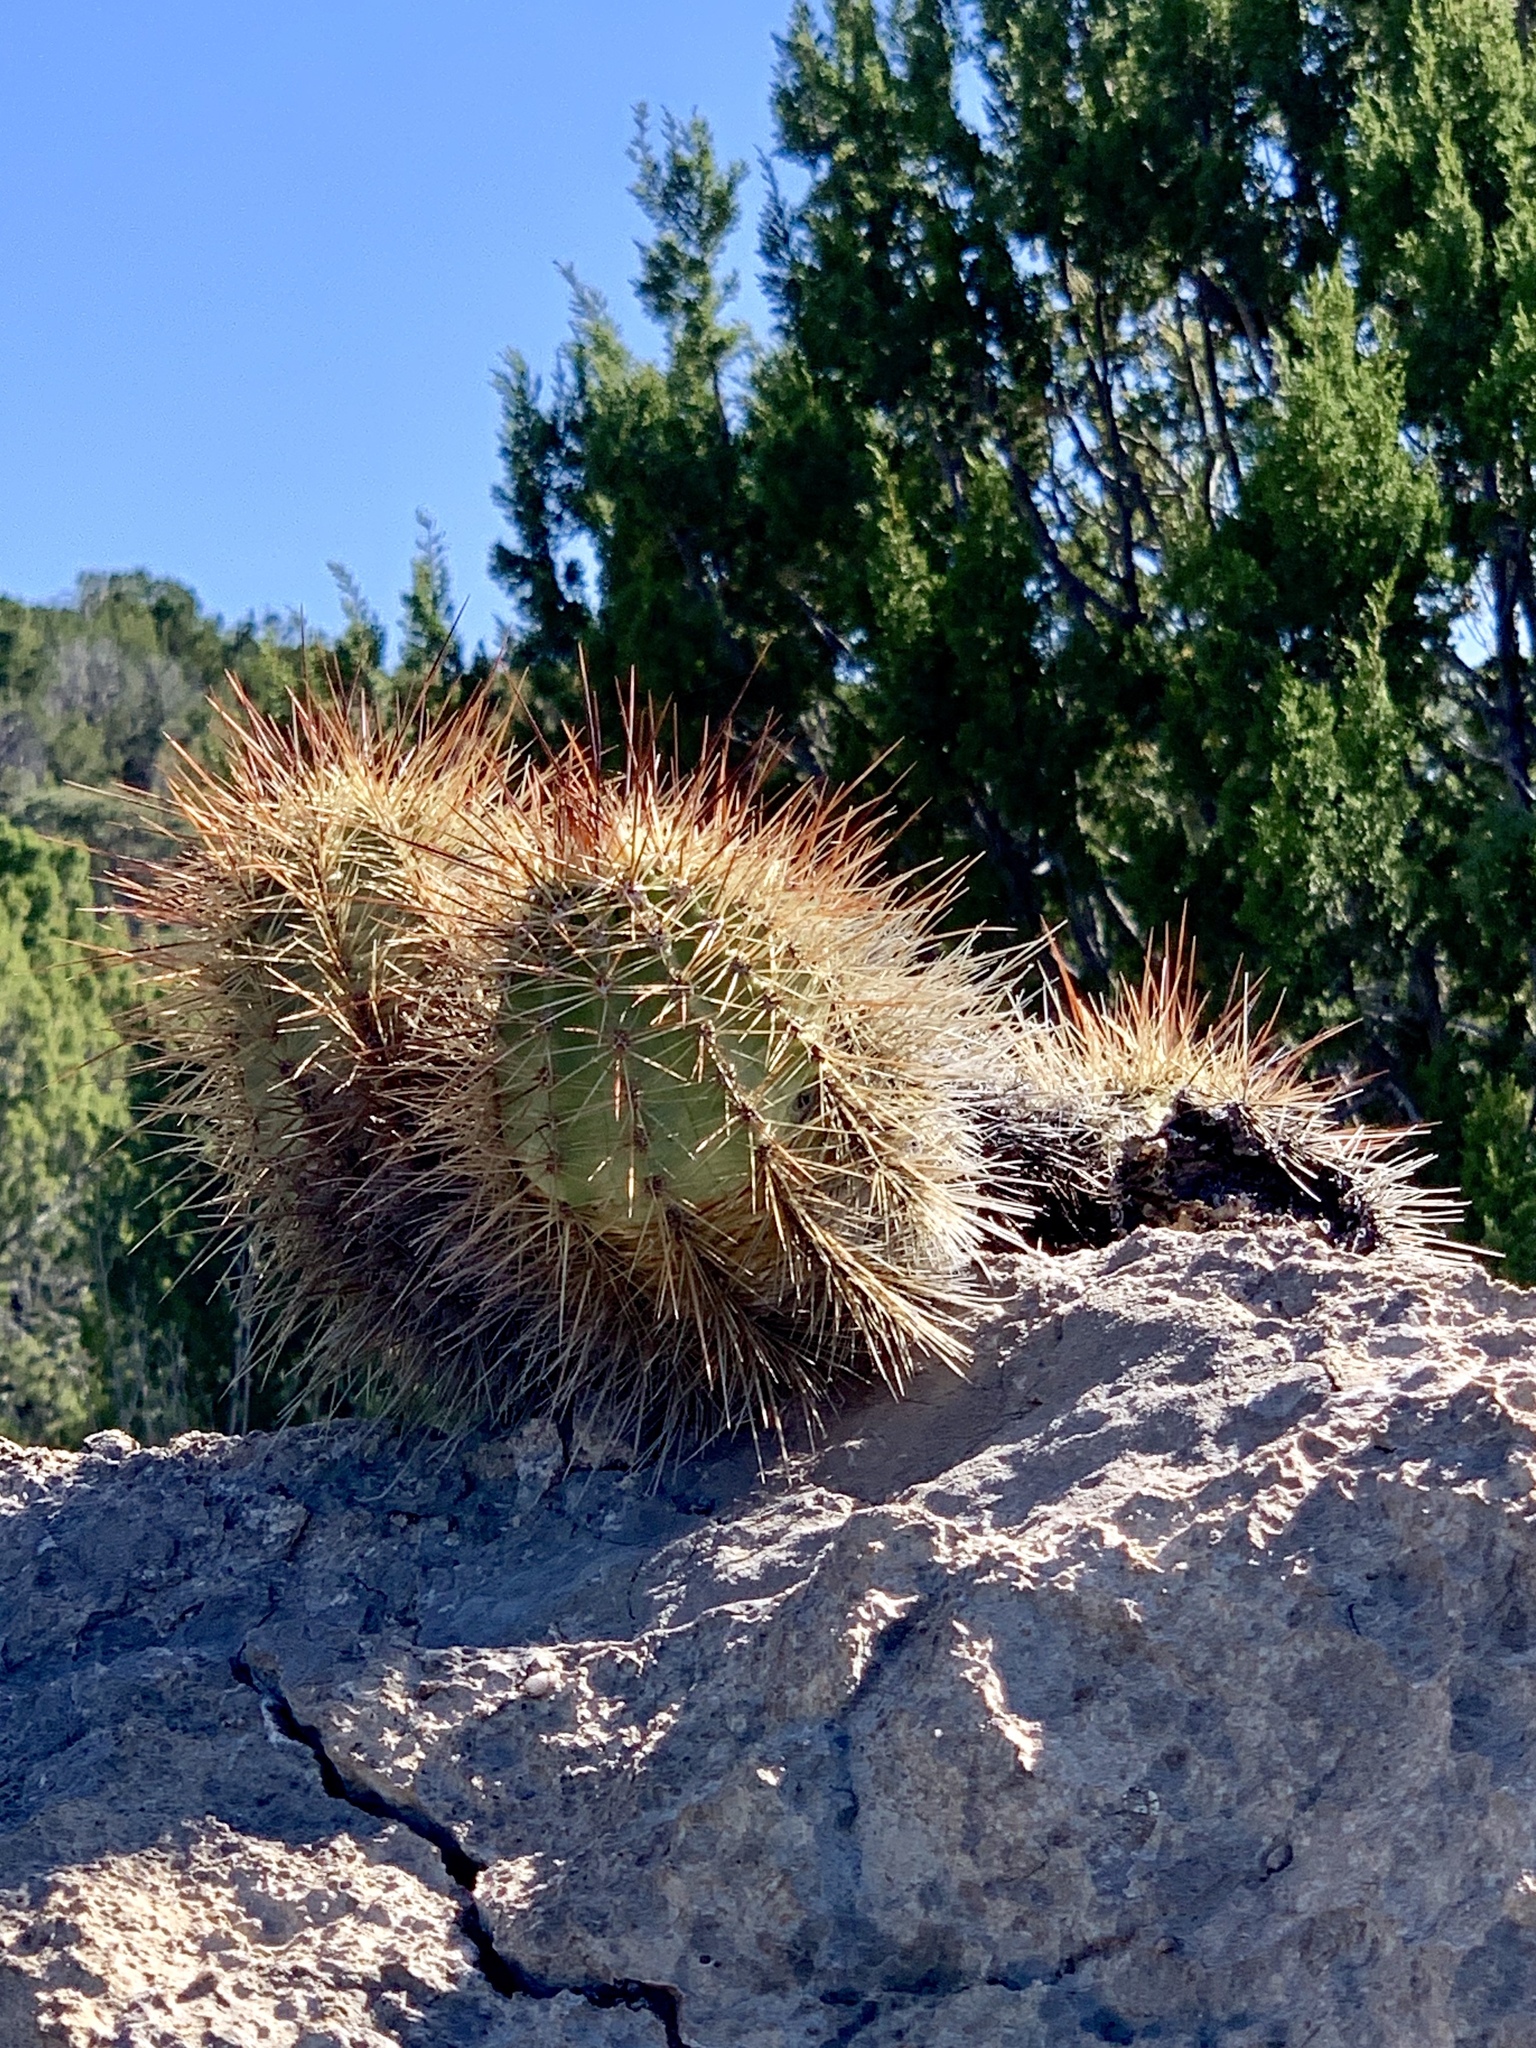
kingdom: Plantae
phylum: Tracheophyta
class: Magnoliopsida
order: Caryophyllales
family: Cactaceae
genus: Echinocereus
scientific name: Echinocereus coccineus
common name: Scarlet hedgehog cactus
